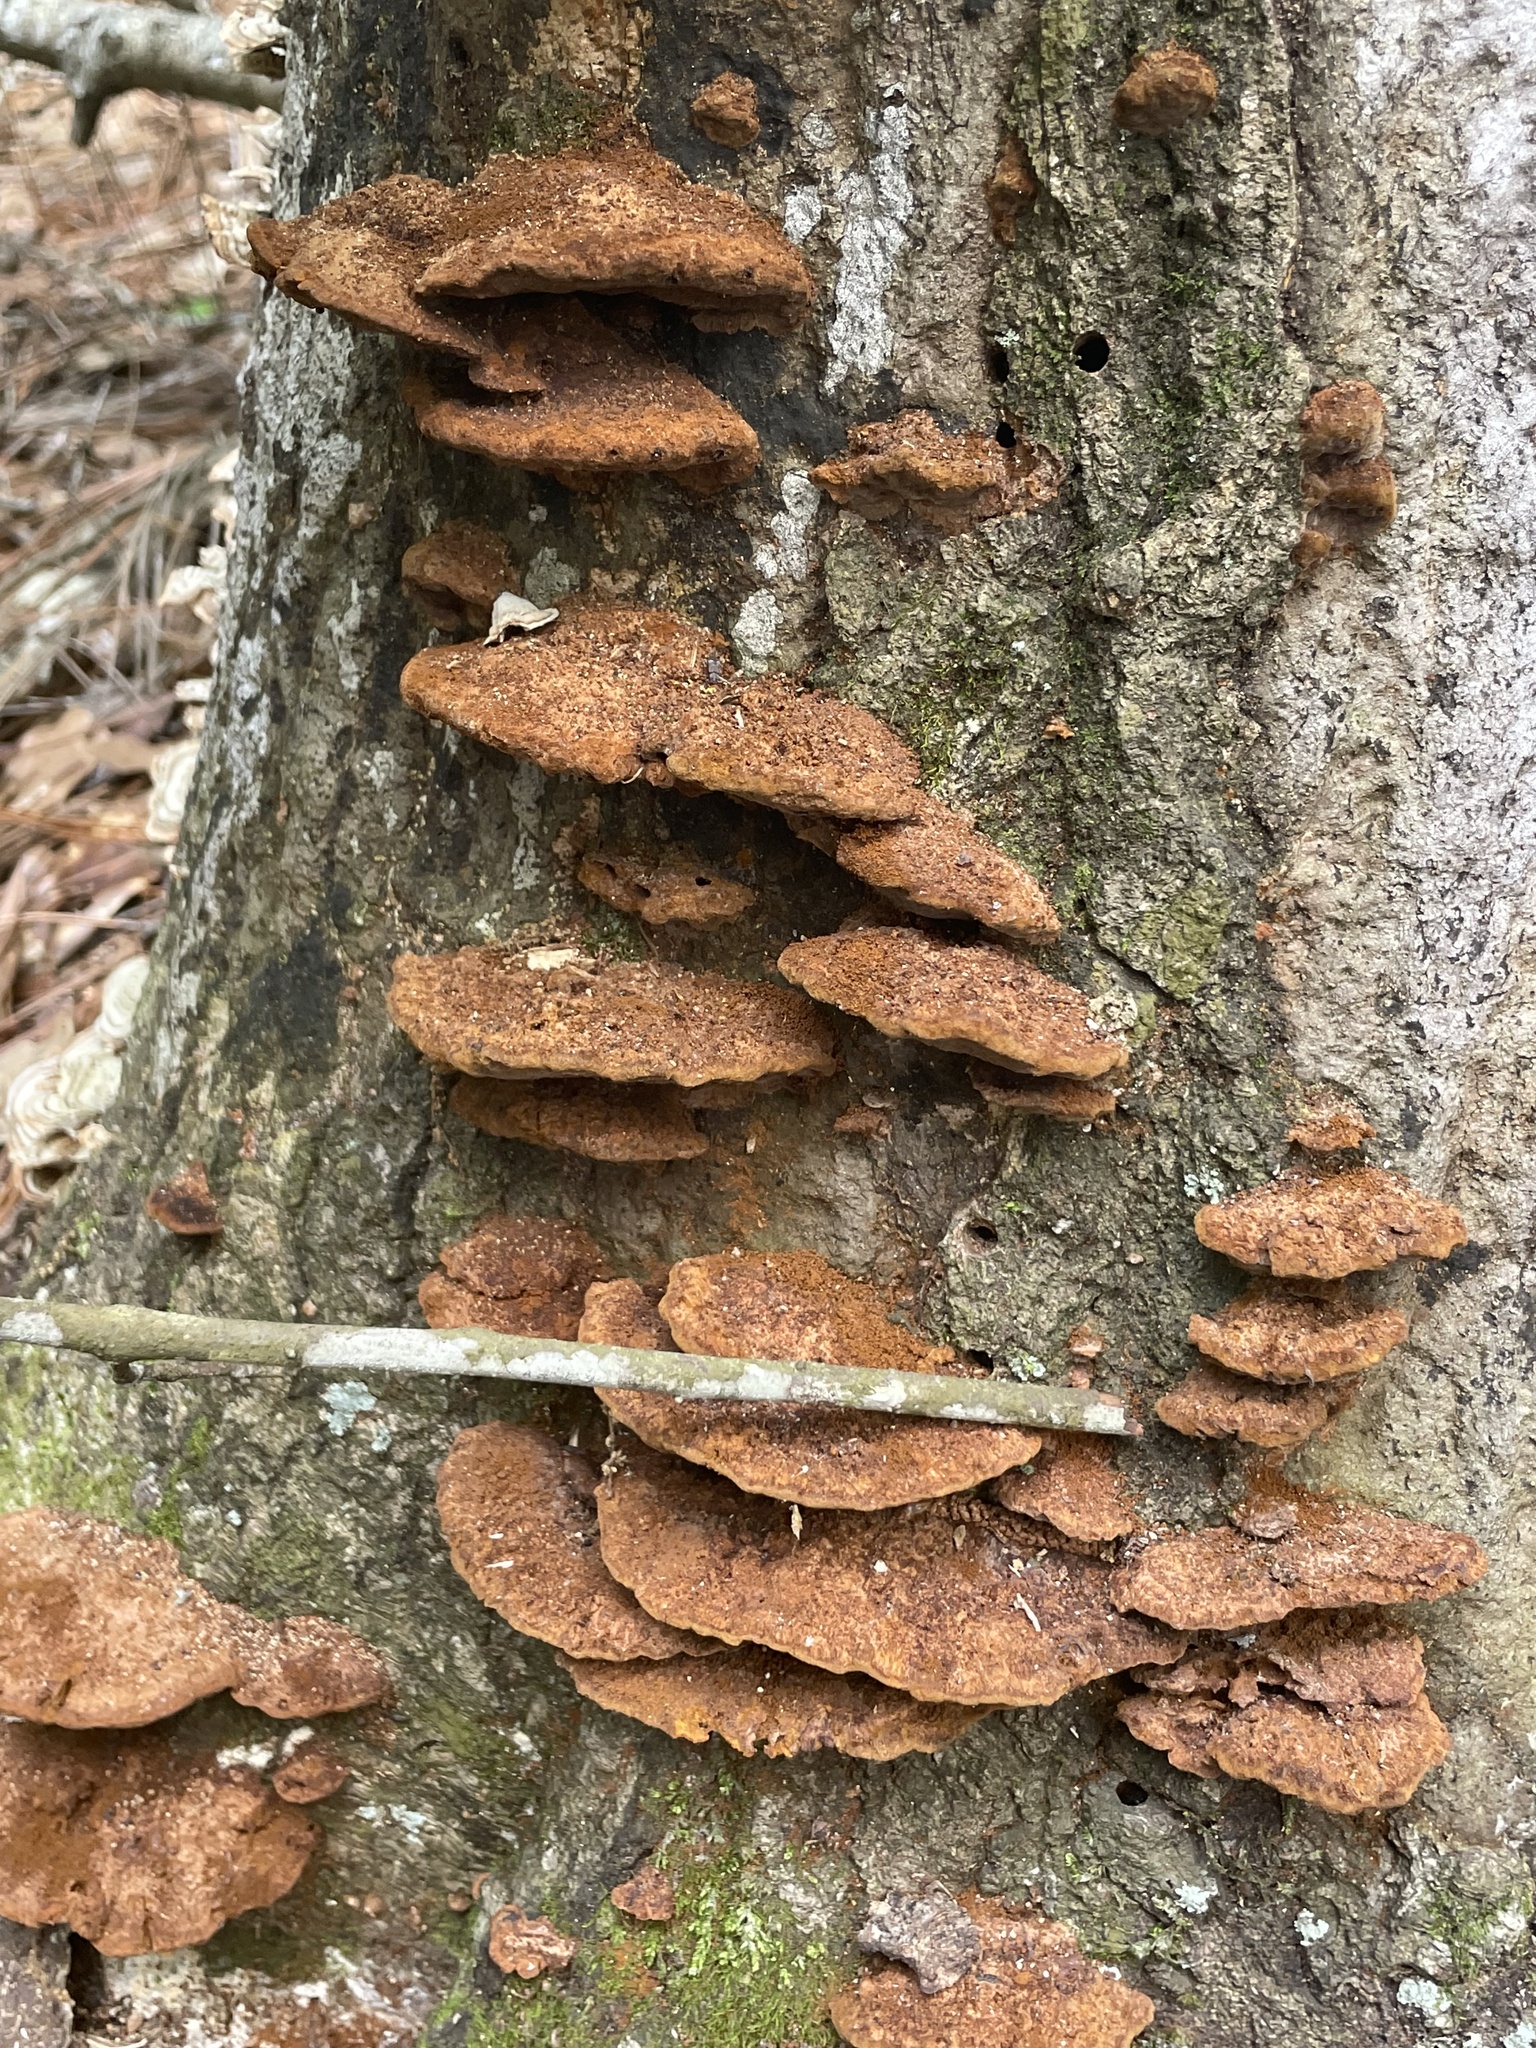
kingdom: Fungi
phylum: Basidiomycota
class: Agaricomycetes
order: Hymenochaetales
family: Hymenochaetaceae
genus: Phellinus
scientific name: Phellinus gilvus
